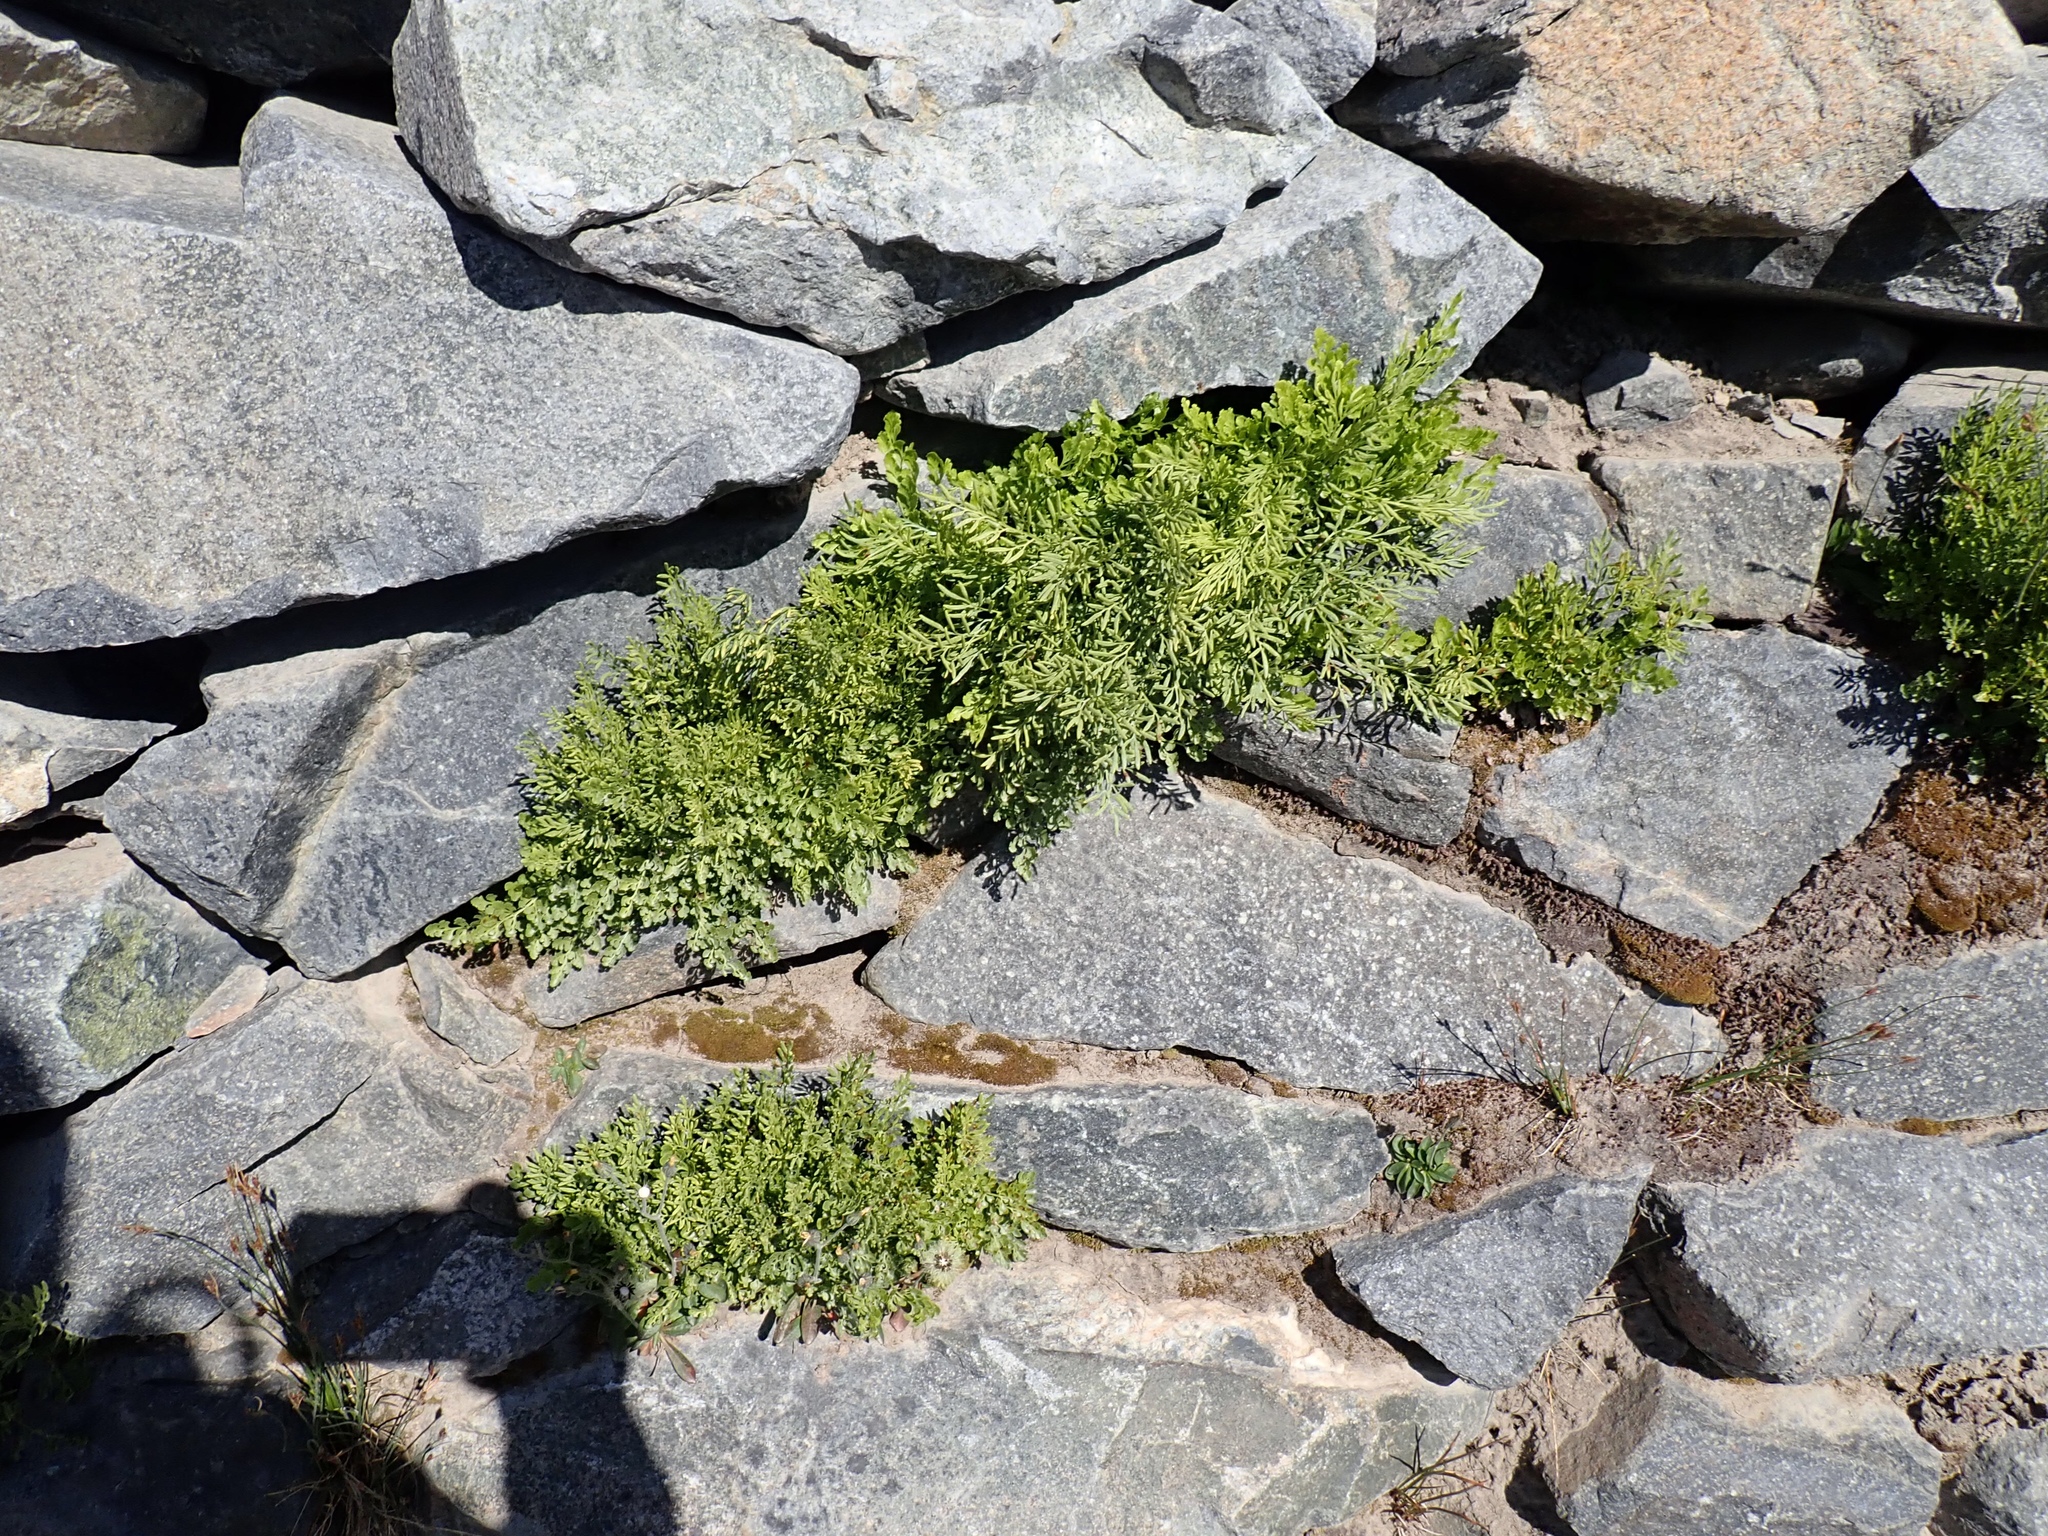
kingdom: Plantae
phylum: Tracheophyta
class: Polypodiopsida
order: Polypodiales
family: Pteridaceae
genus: Cryptogramma
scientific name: Cryptogramma cascadensis
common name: Cascade parsley fern
